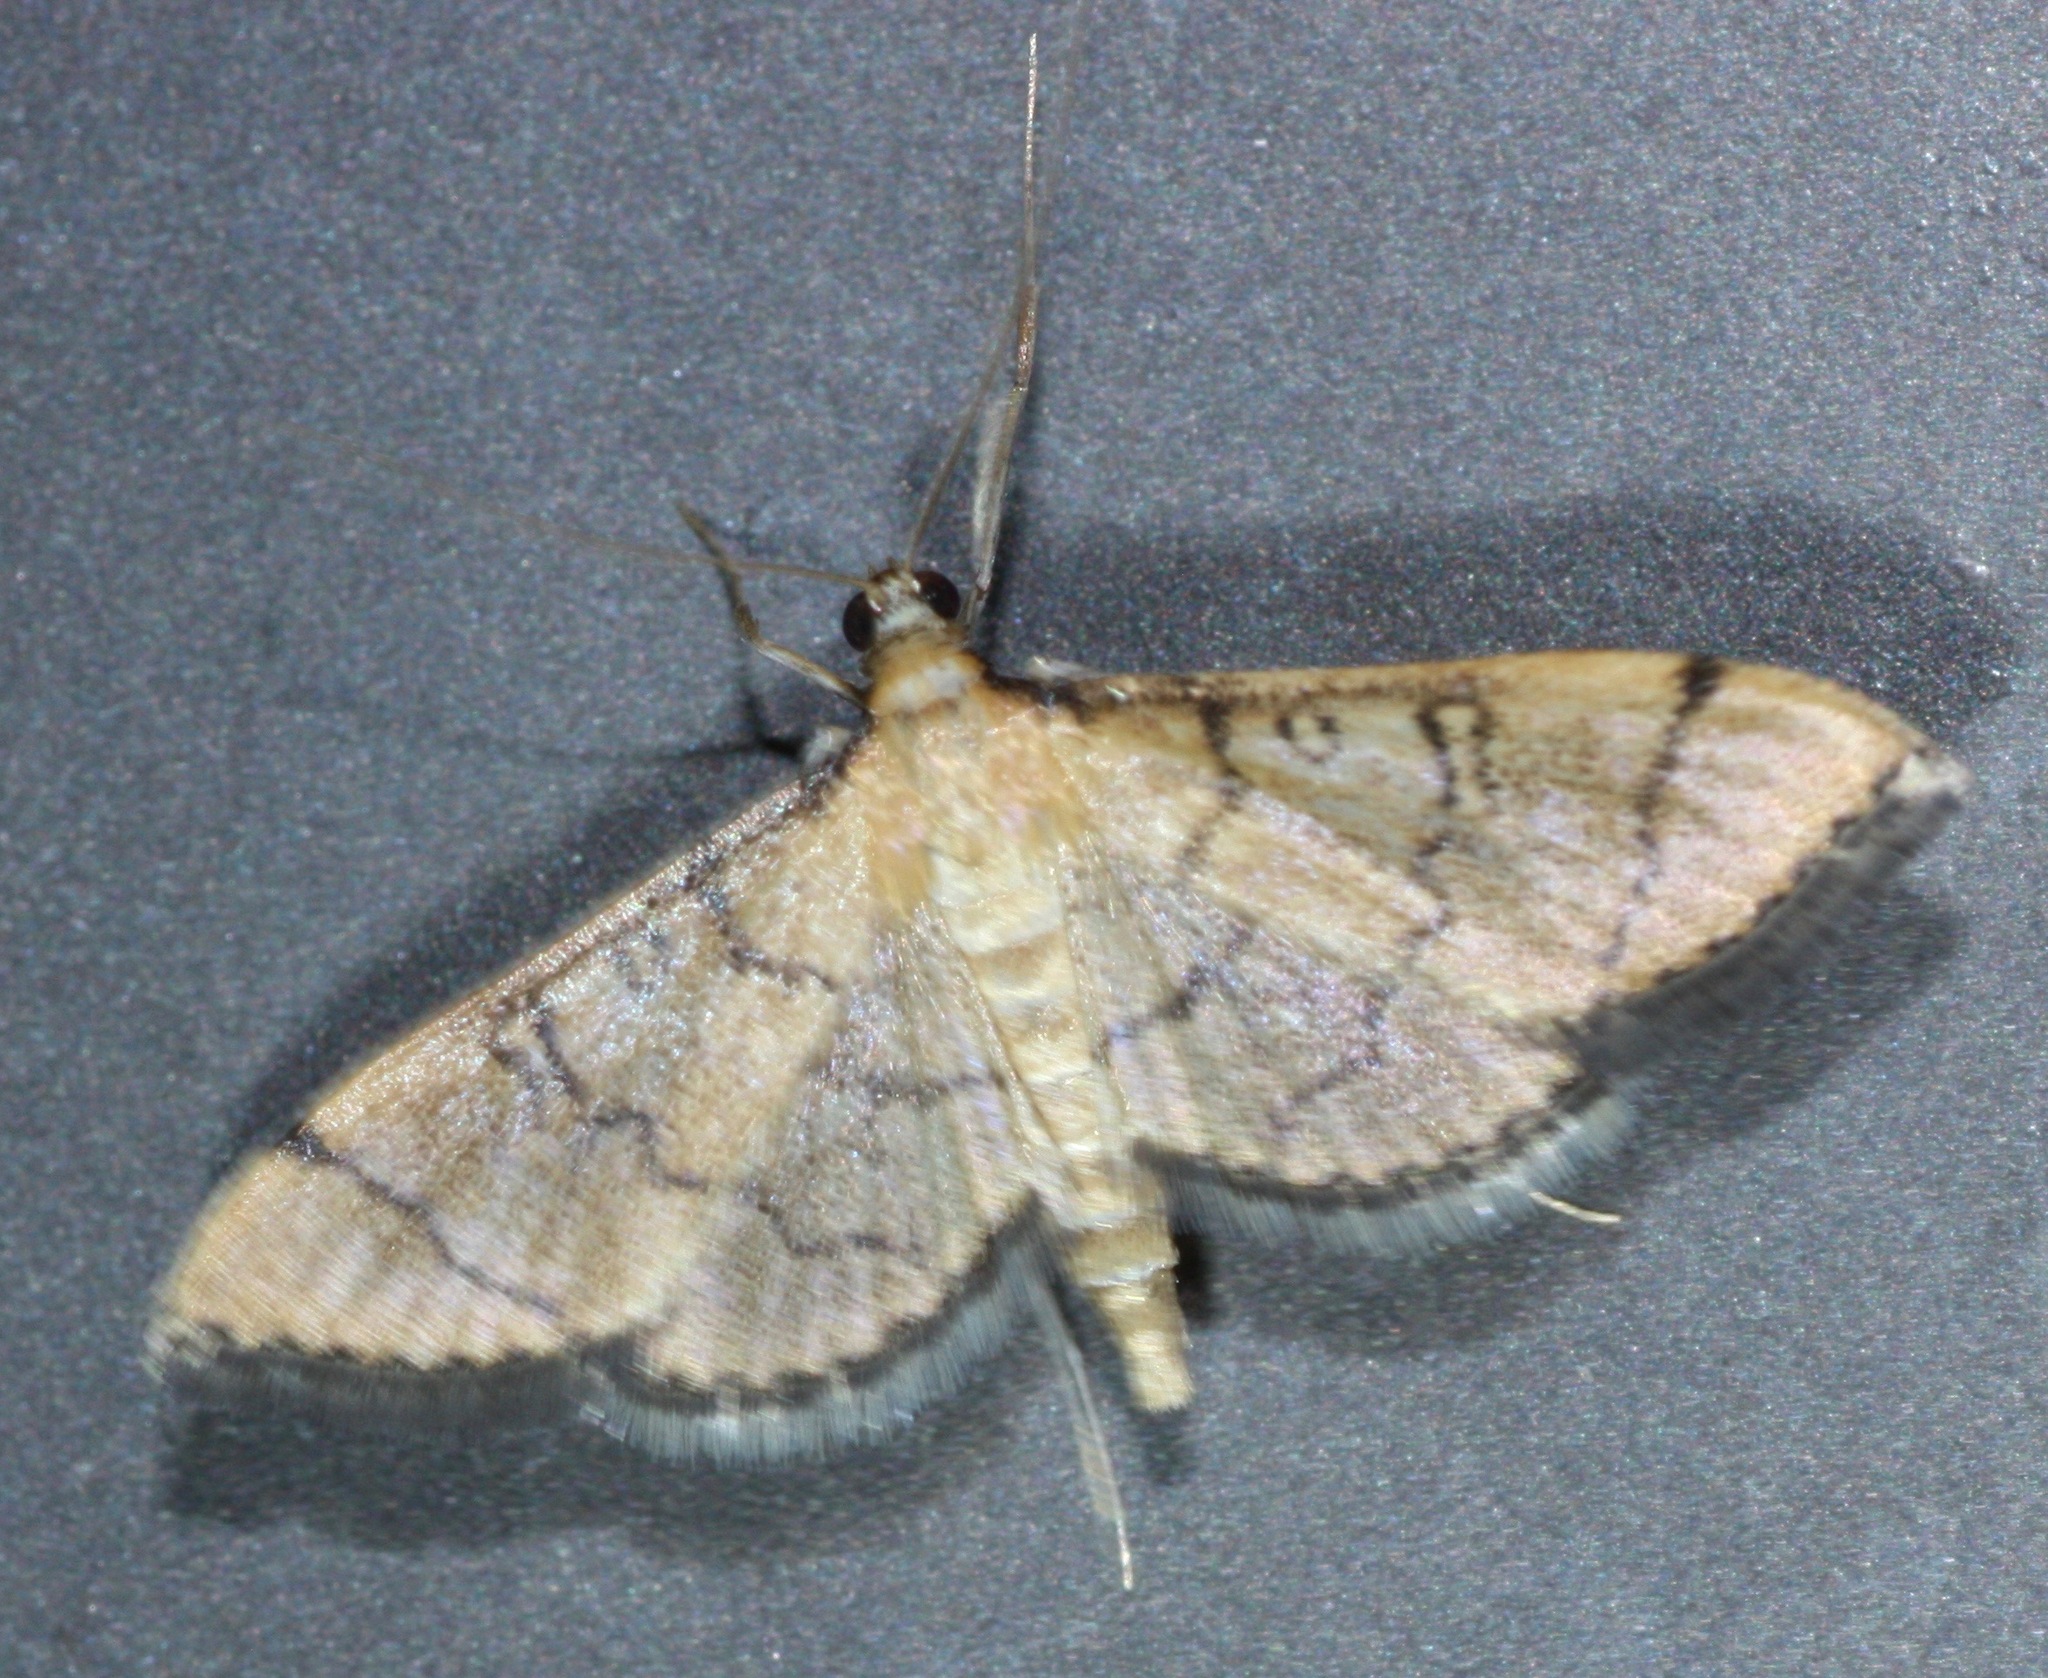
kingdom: Animalia
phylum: Arthropoda
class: Insecta
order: Lepidoptera
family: Crambidae
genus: Lamprosema
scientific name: Lamprosema Blepharomastix ranalis
